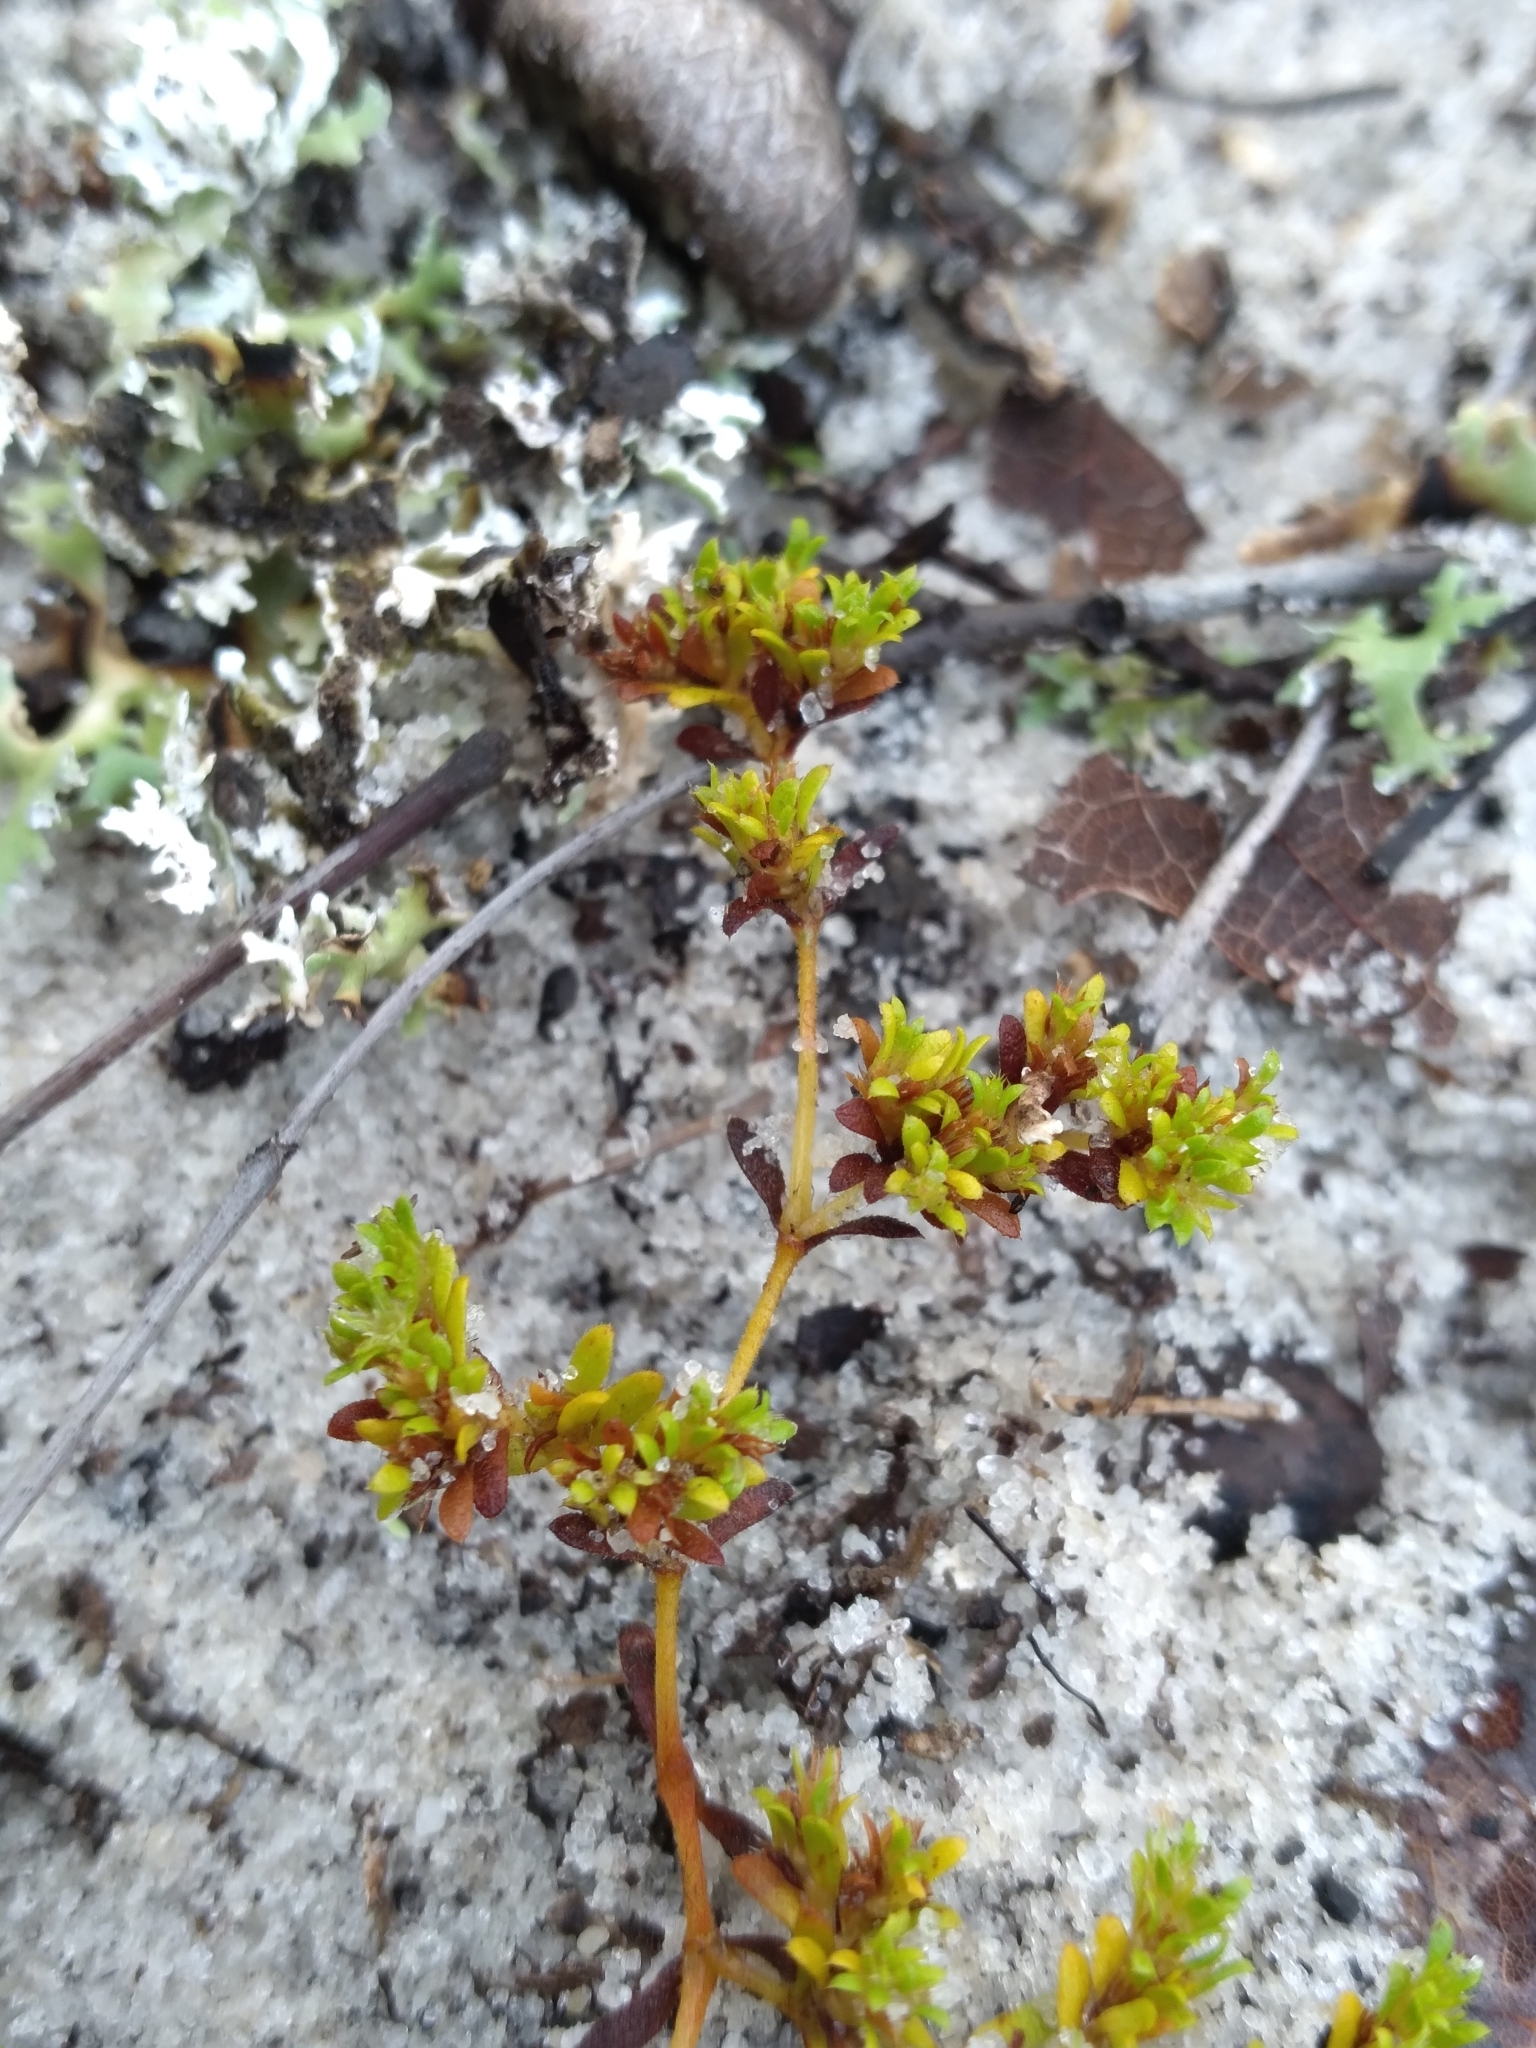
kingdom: Plantae
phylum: Tracheophyta
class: Magnoliopsida
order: Caryophyllales
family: Caryophyllaceae
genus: Paronychia
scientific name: Paronychia herniarioides
